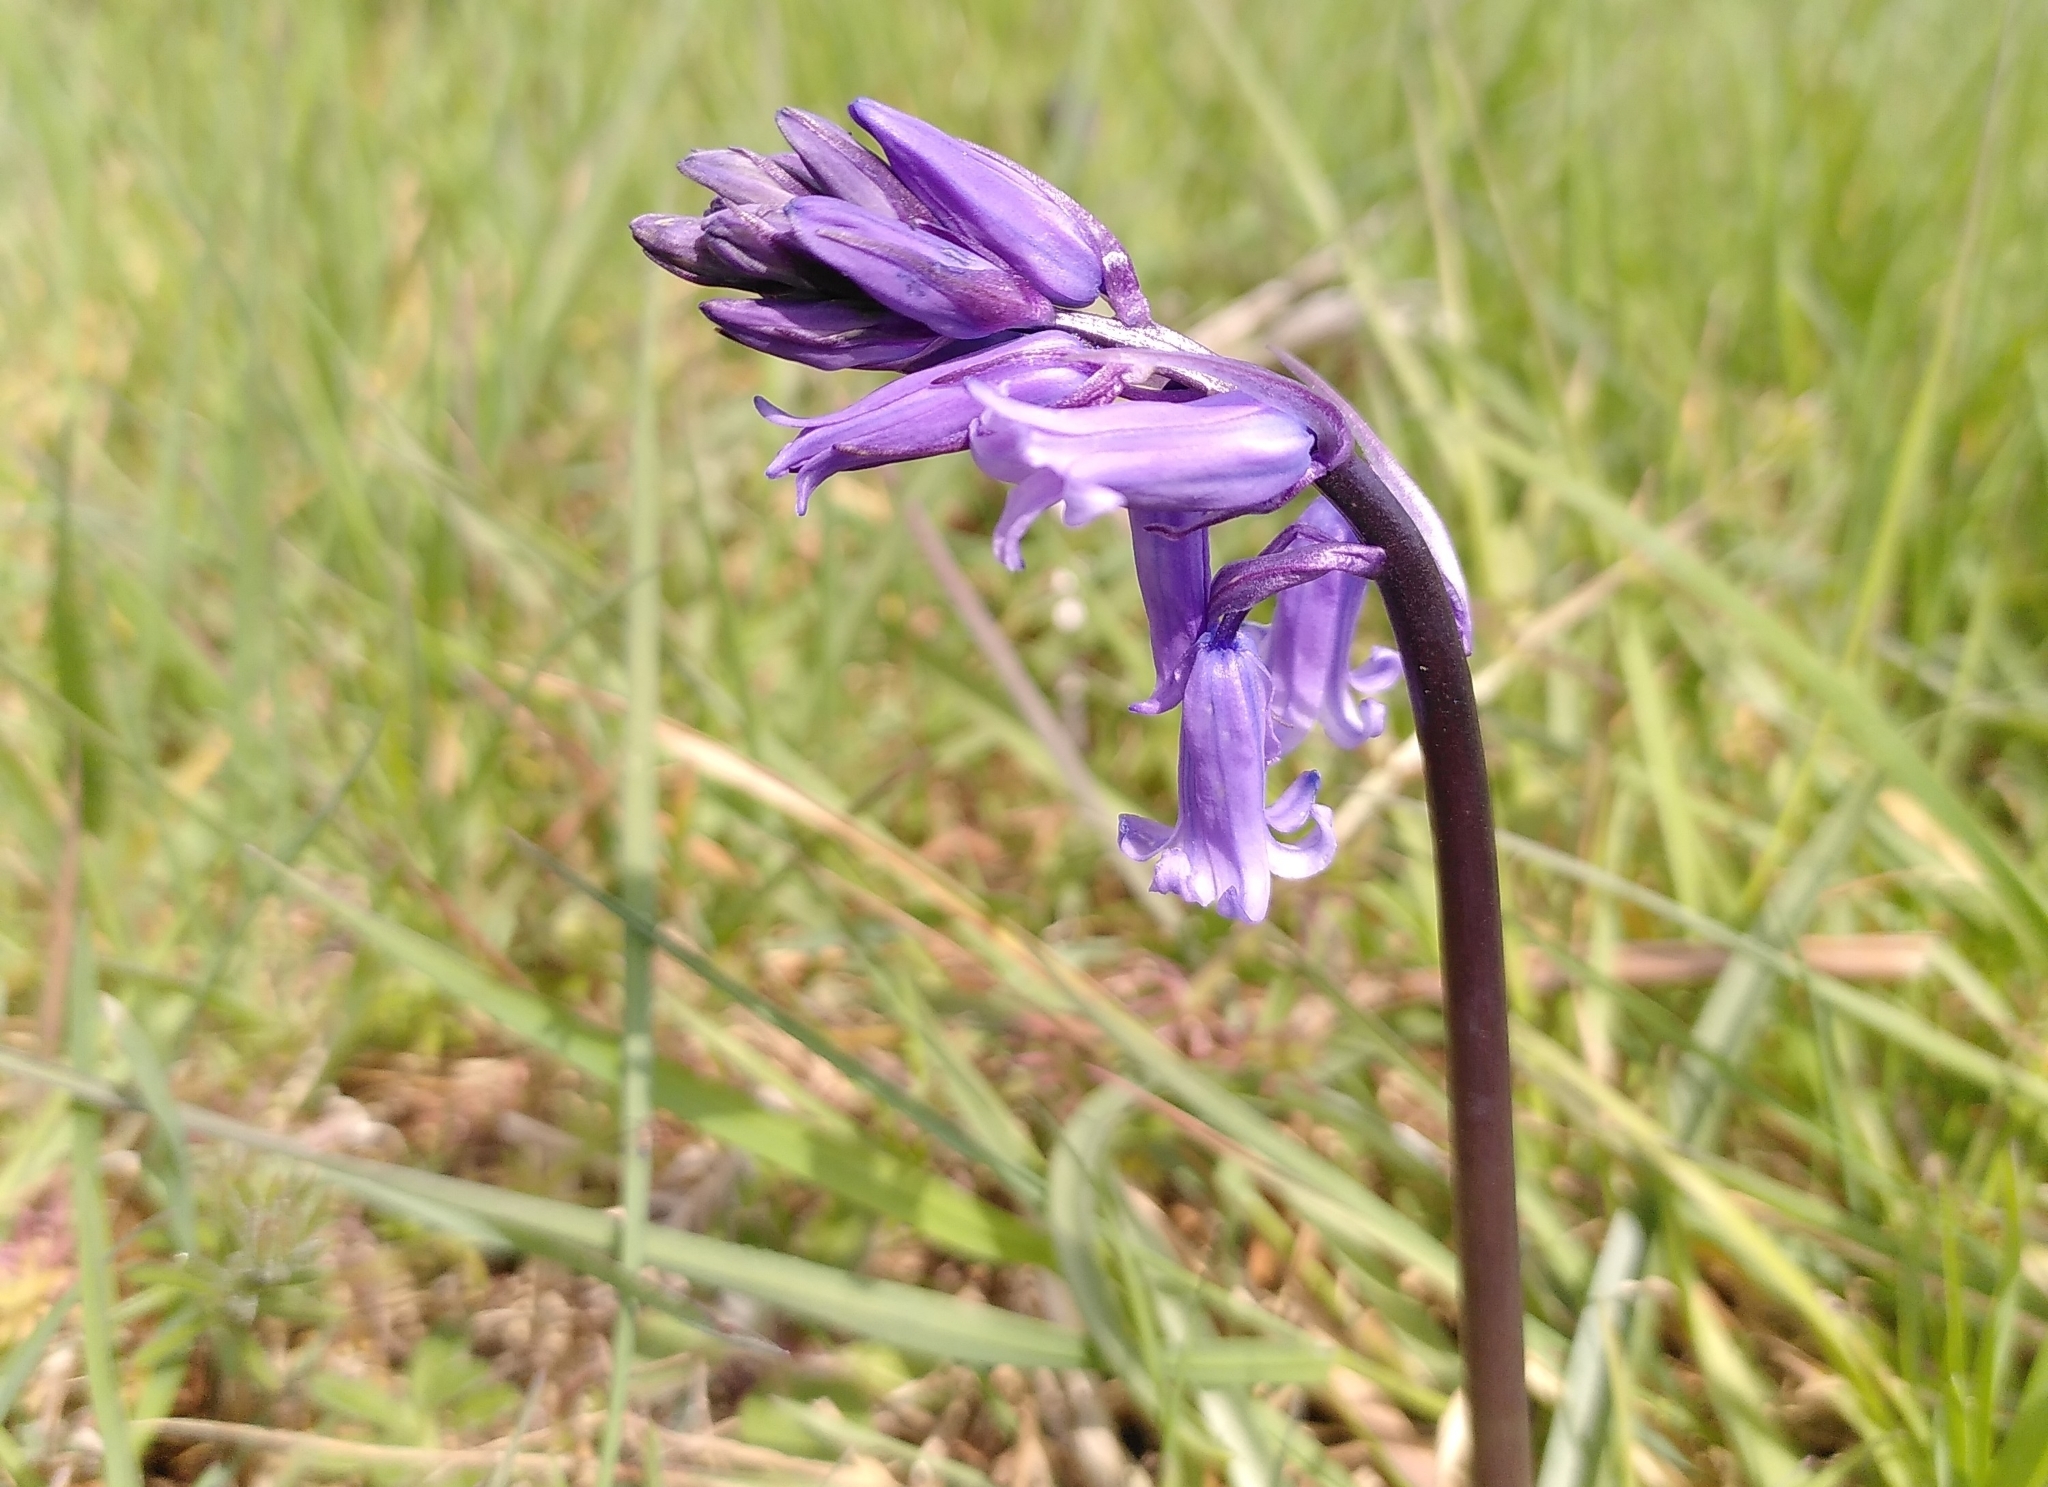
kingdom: Plantae
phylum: Tracheophyta
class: Liliopsida
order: Asparagales
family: Asparagaceae
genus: Hyacinthoides
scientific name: Hyacinthoides non-scripta
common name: Bluebell
